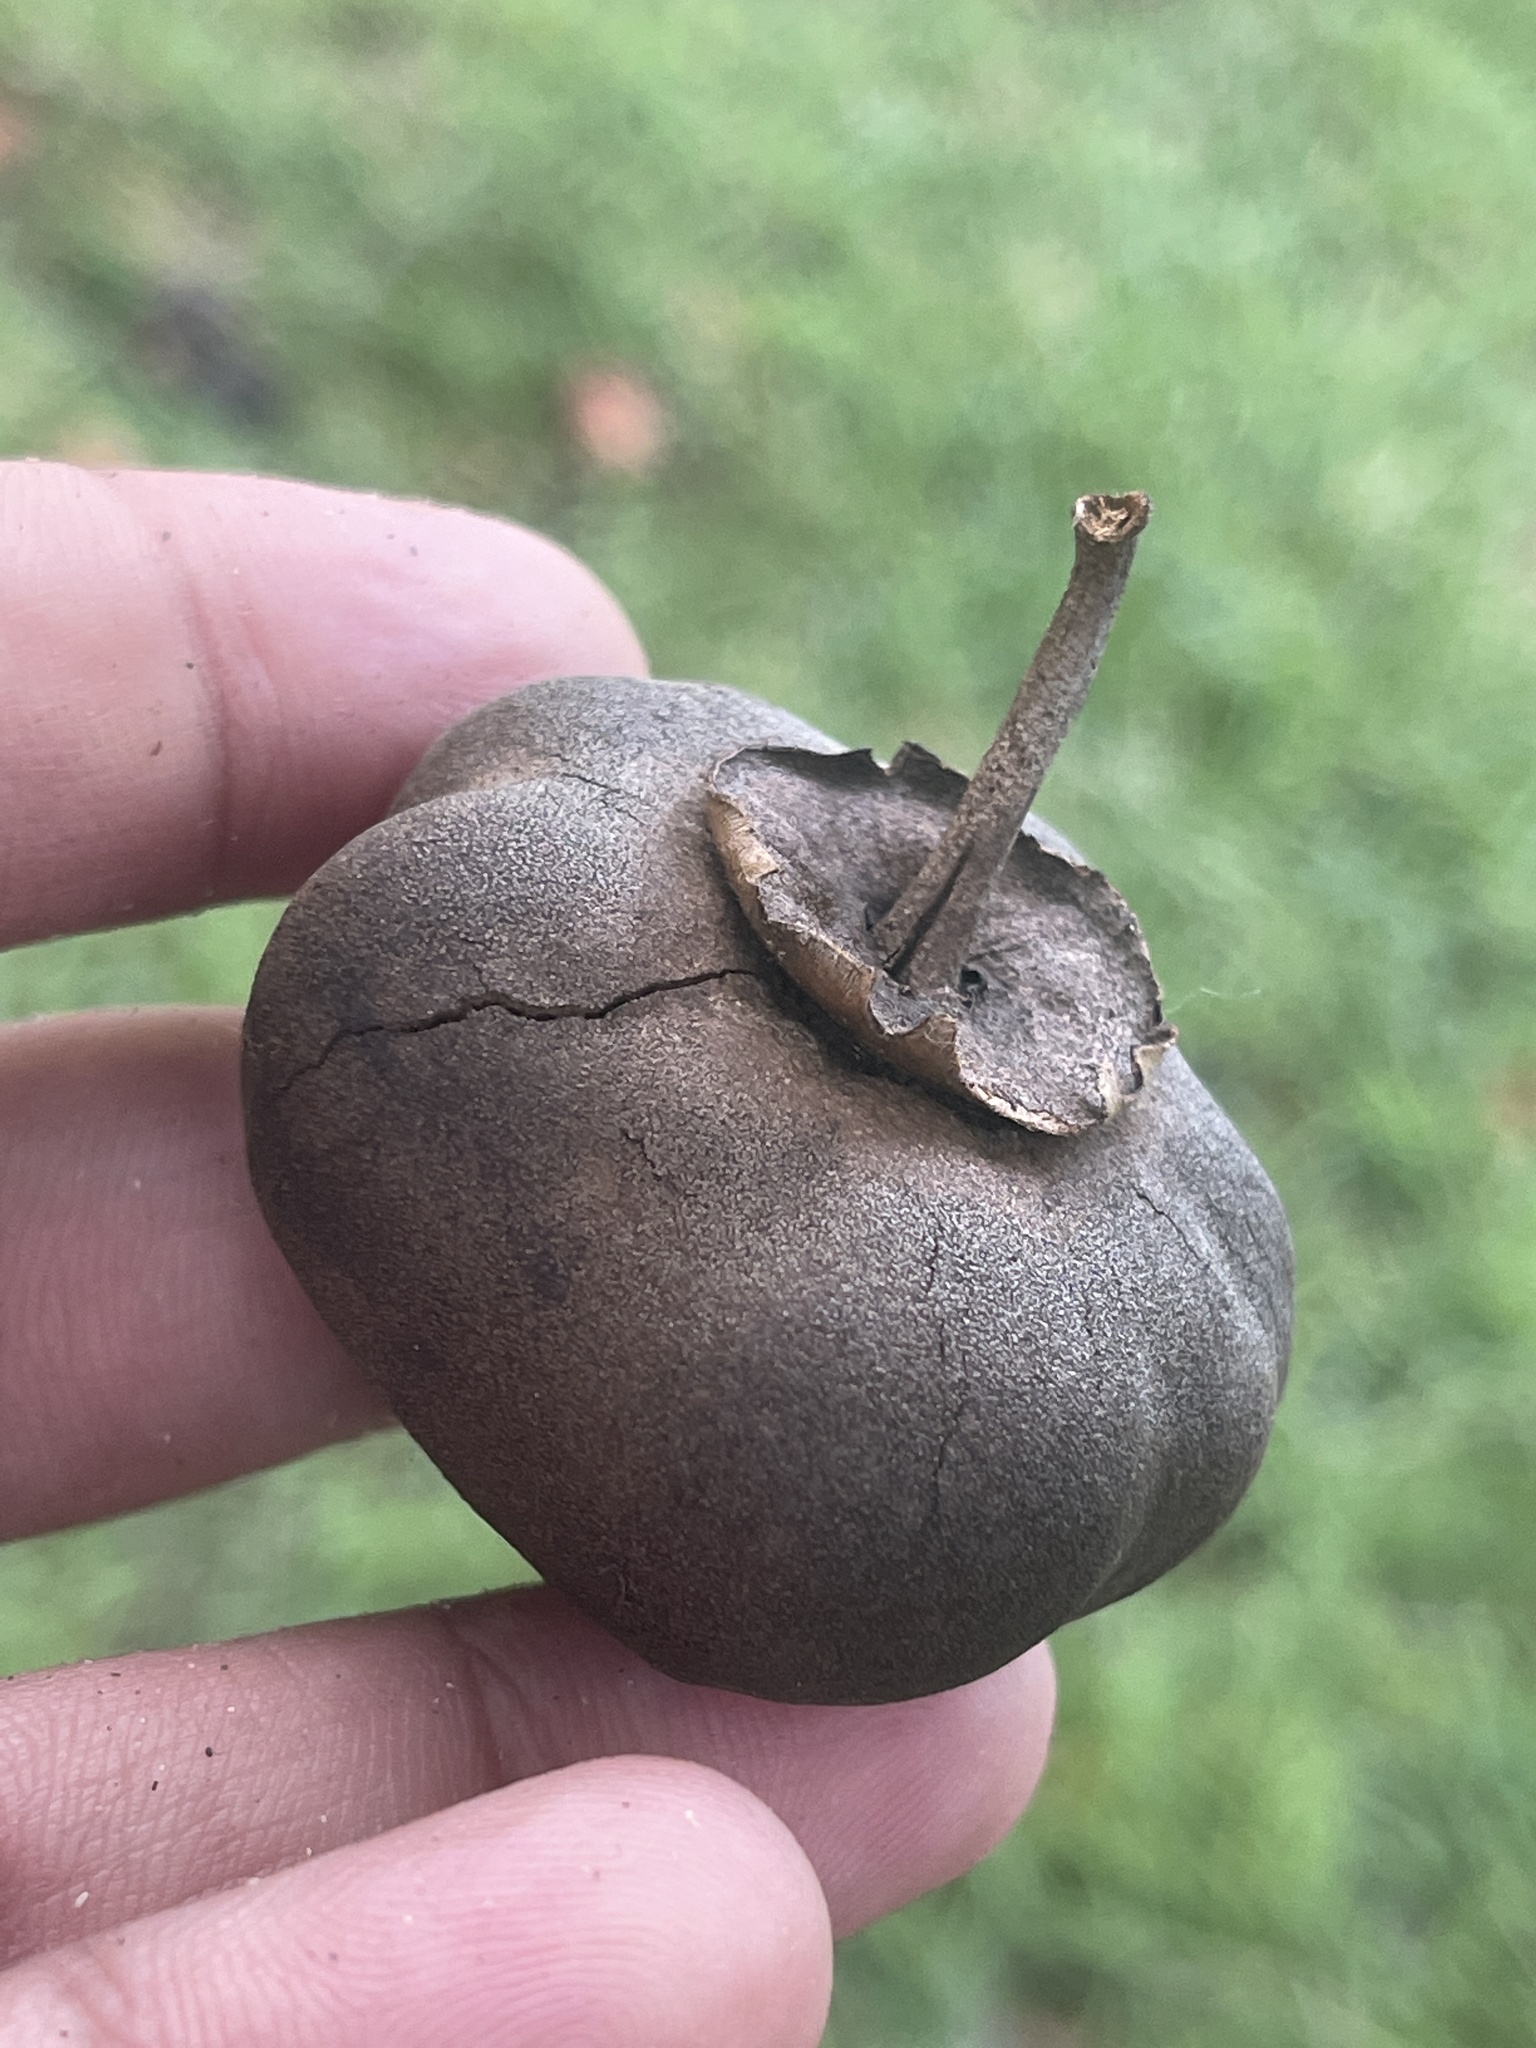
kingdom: Plantae
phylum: Tracheophyta
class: Magnoliopsida
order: Malvales
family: Malvaceae
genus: Thespesia
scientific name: Thespesia populnea
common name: Seaside mahoe
